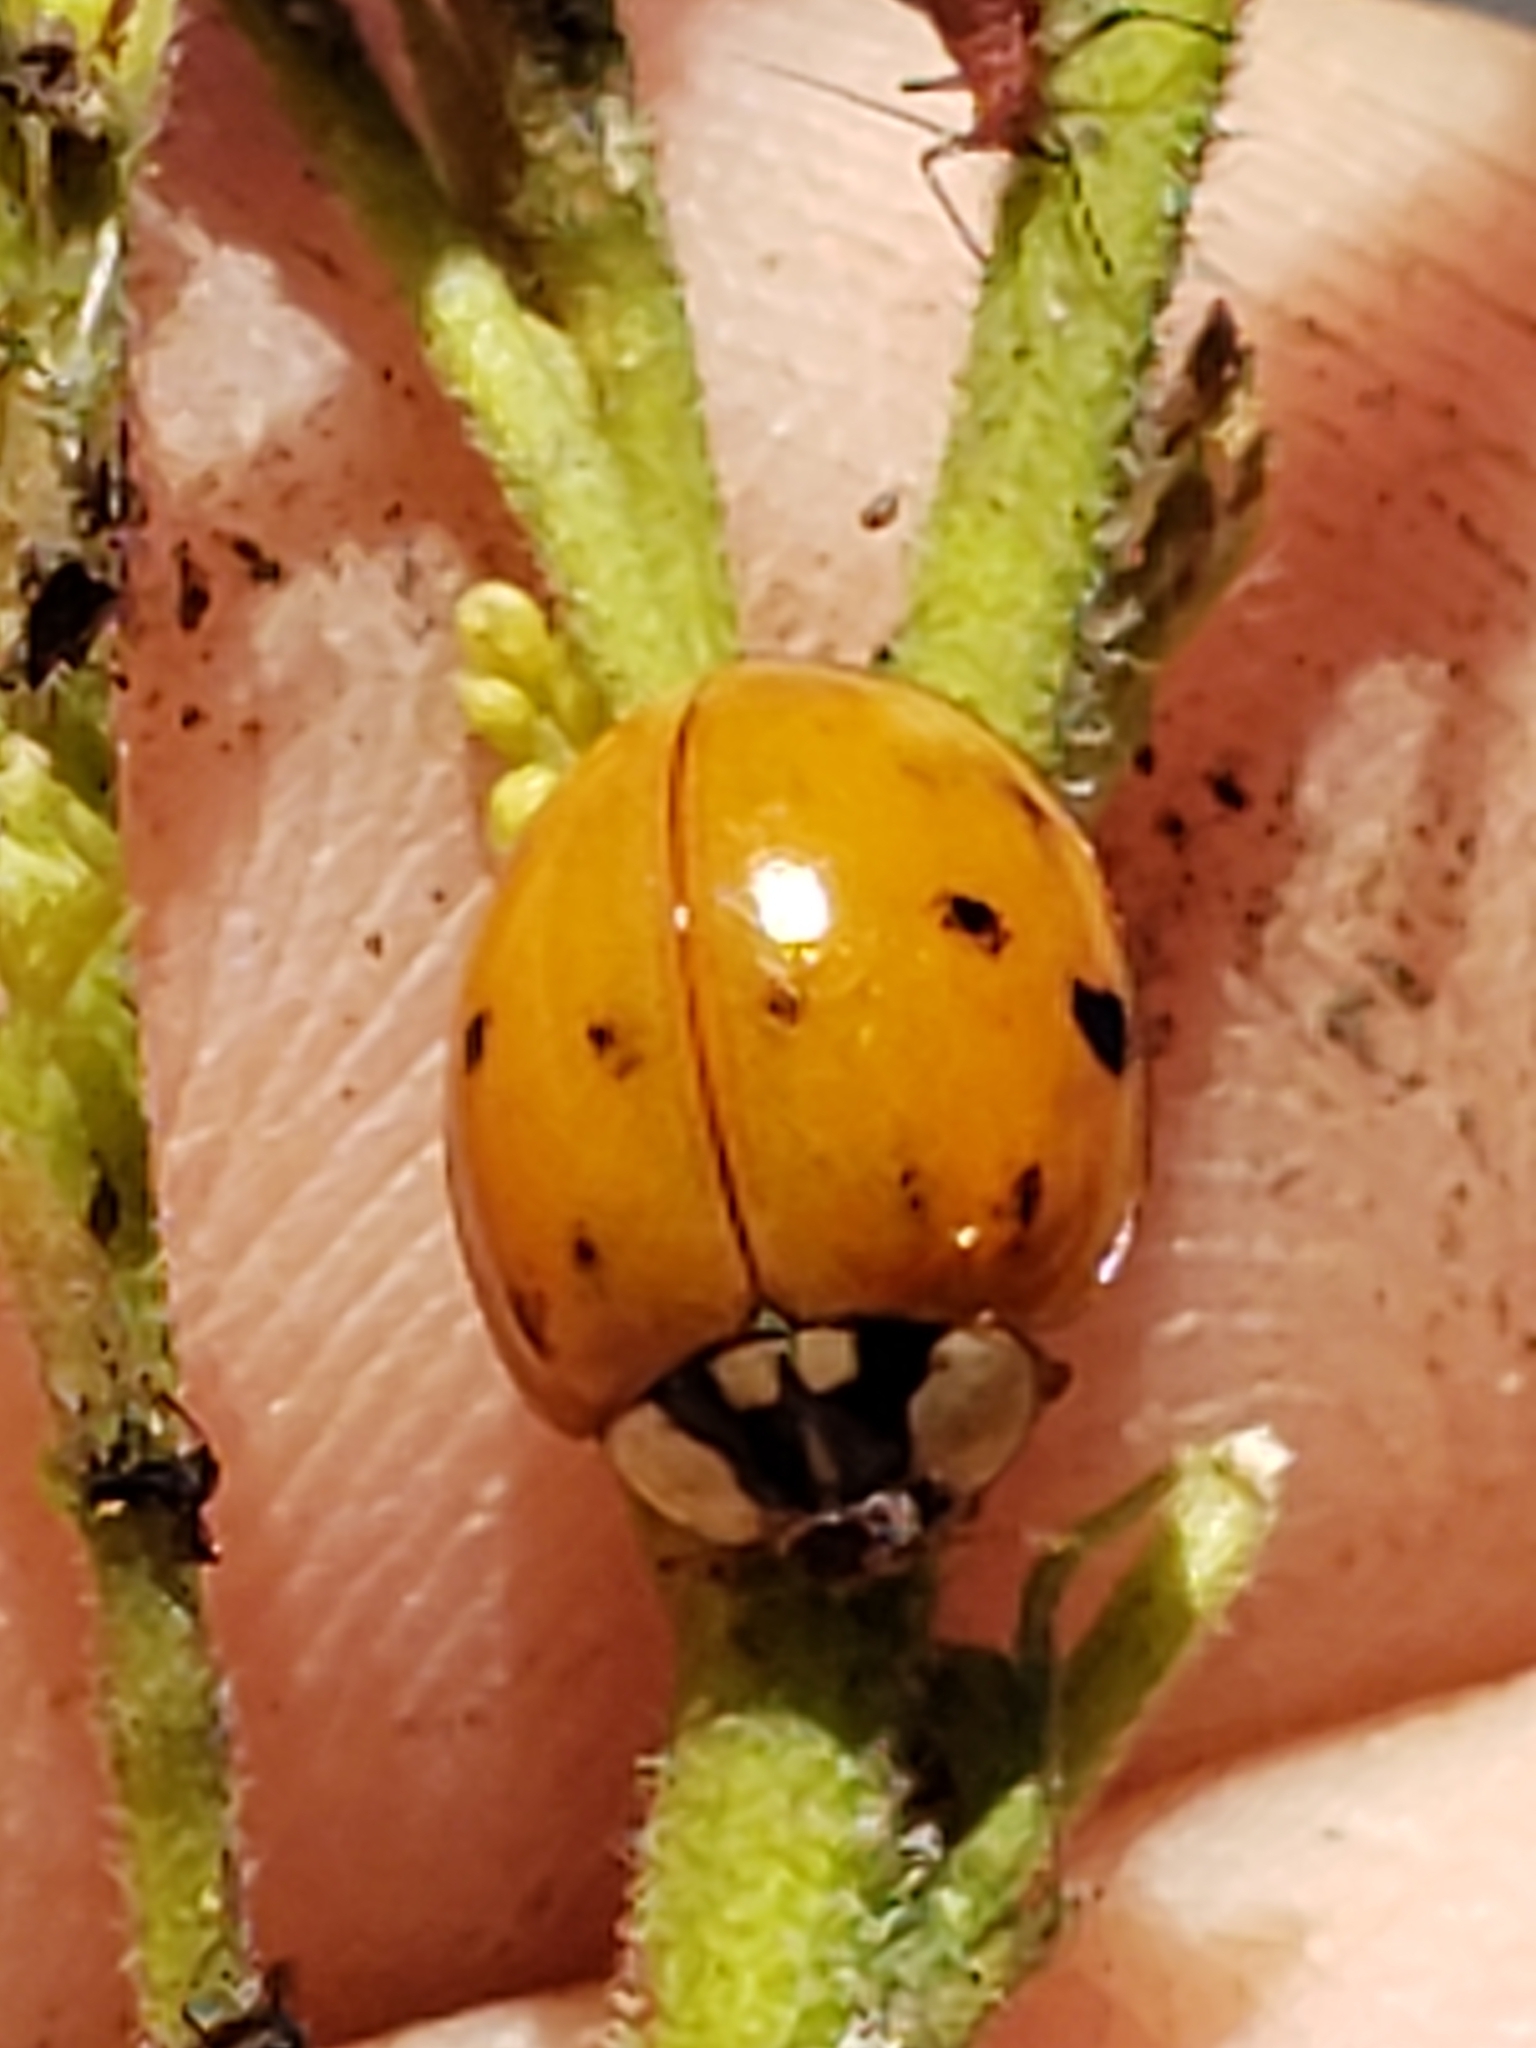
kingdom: Animalia
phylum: Arthropoda
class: Insecta
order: Coleoptera
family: Coccinellidae
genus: Harmonia
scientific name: Harmonia axyridis
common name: Harlequin ladybird
